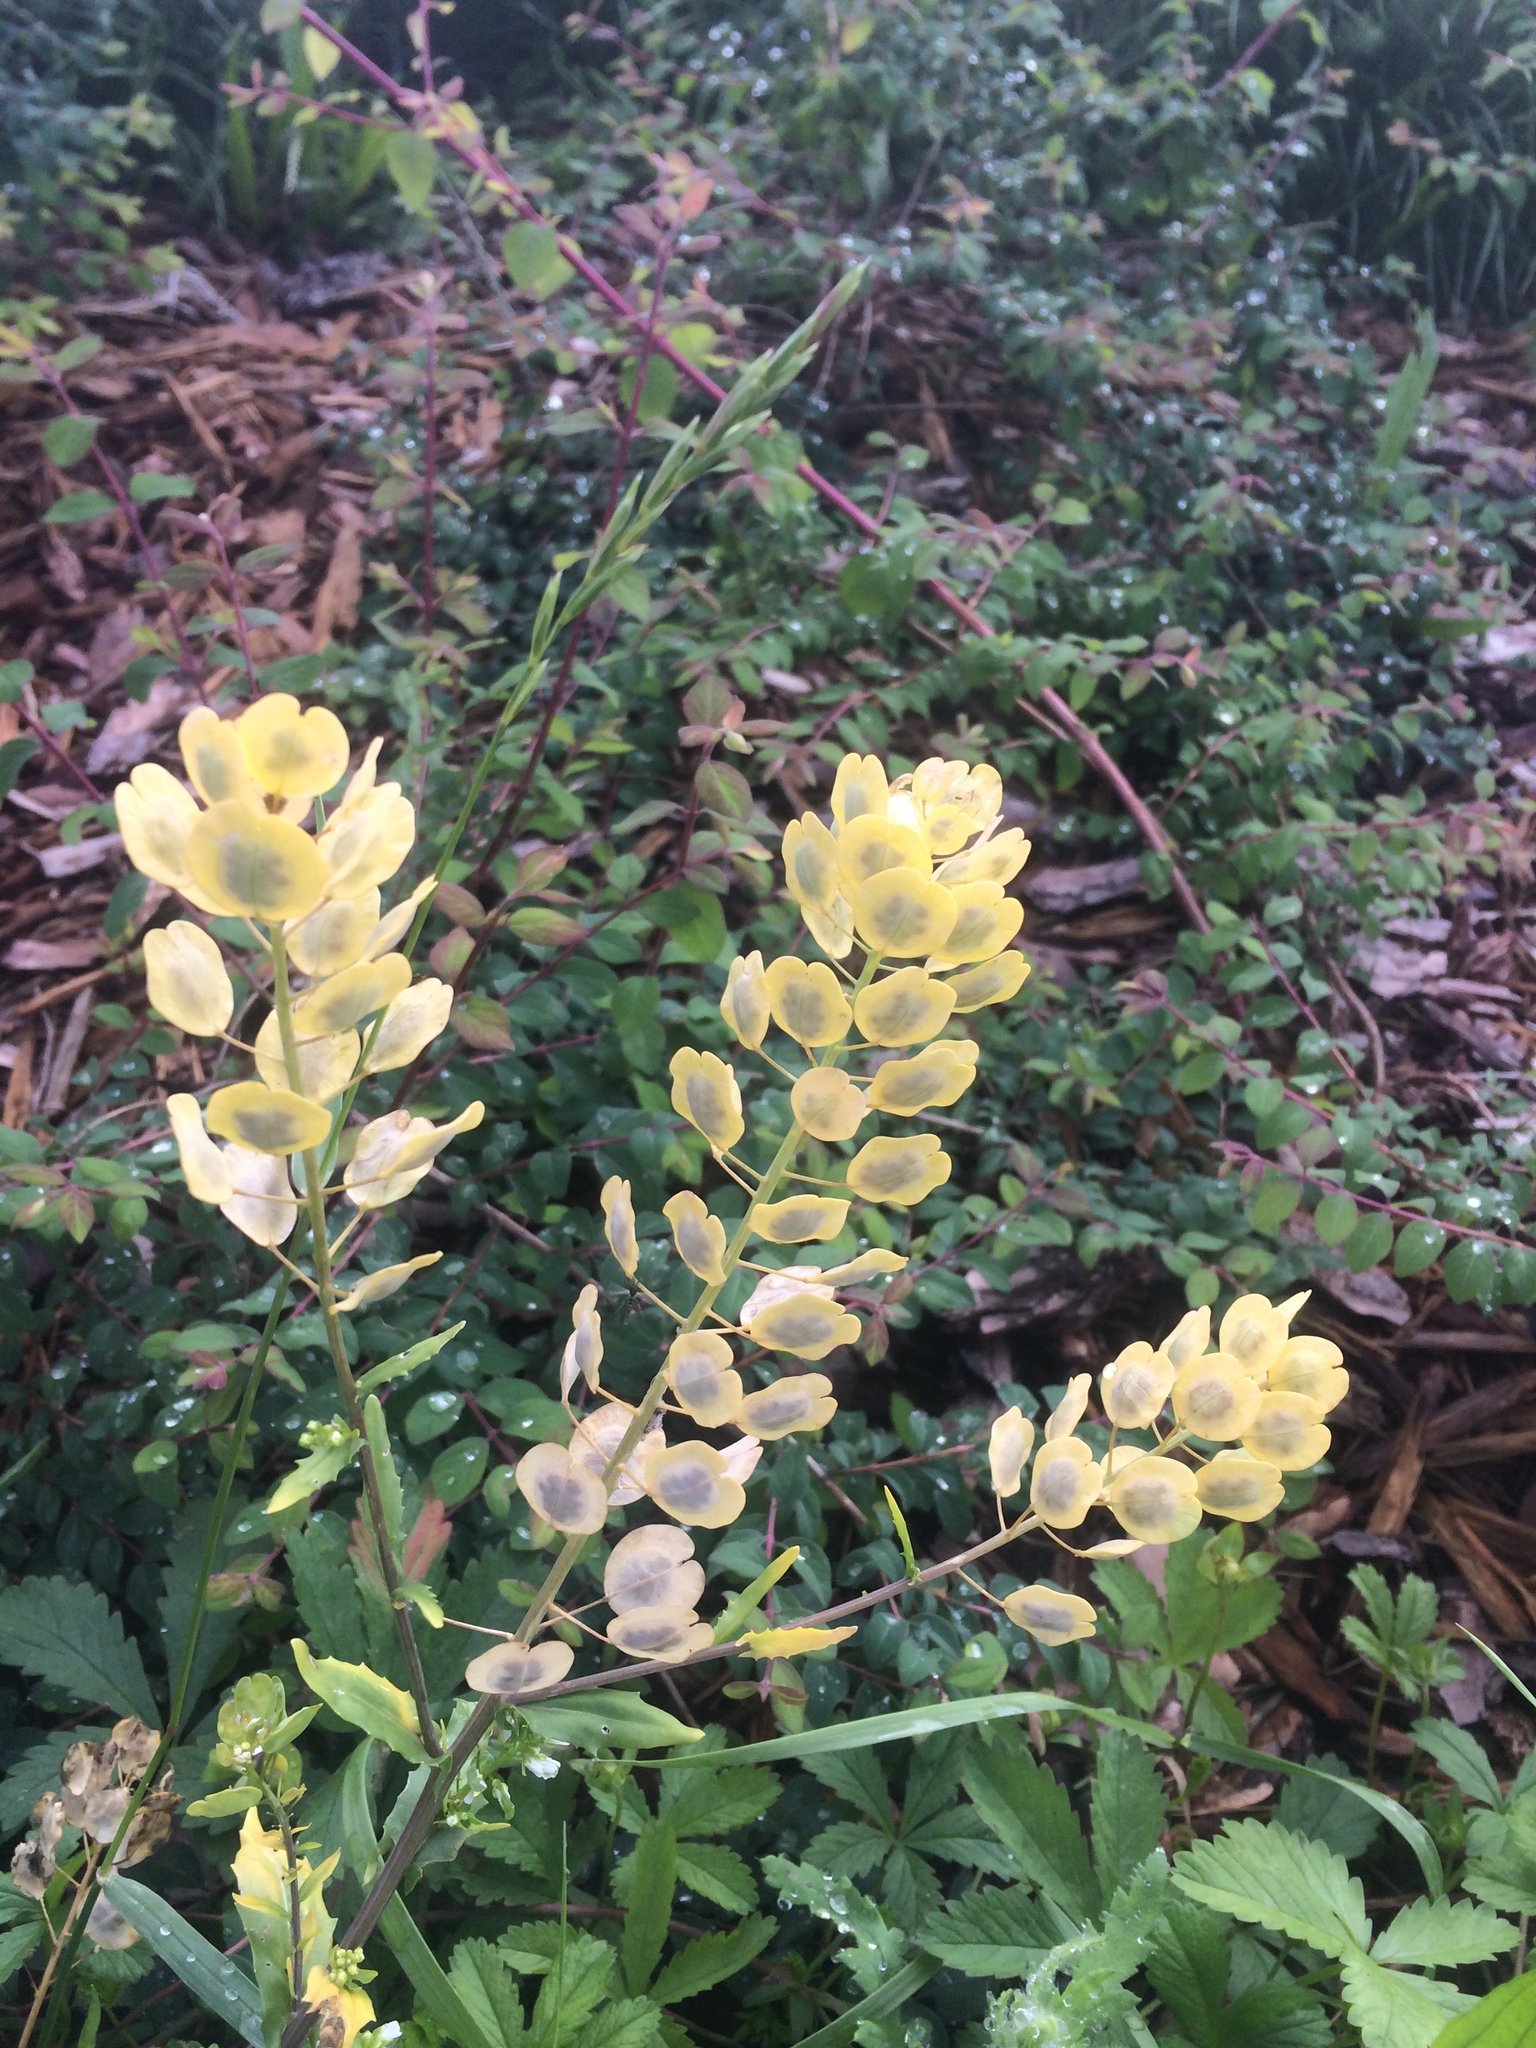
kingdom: Plantae
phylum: Tracheophyta
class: Magnoliopsida
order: Brassicales
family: Brassicaceae
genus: Thlaspi
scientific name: Thlaspi arvense
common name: Field pennycress
